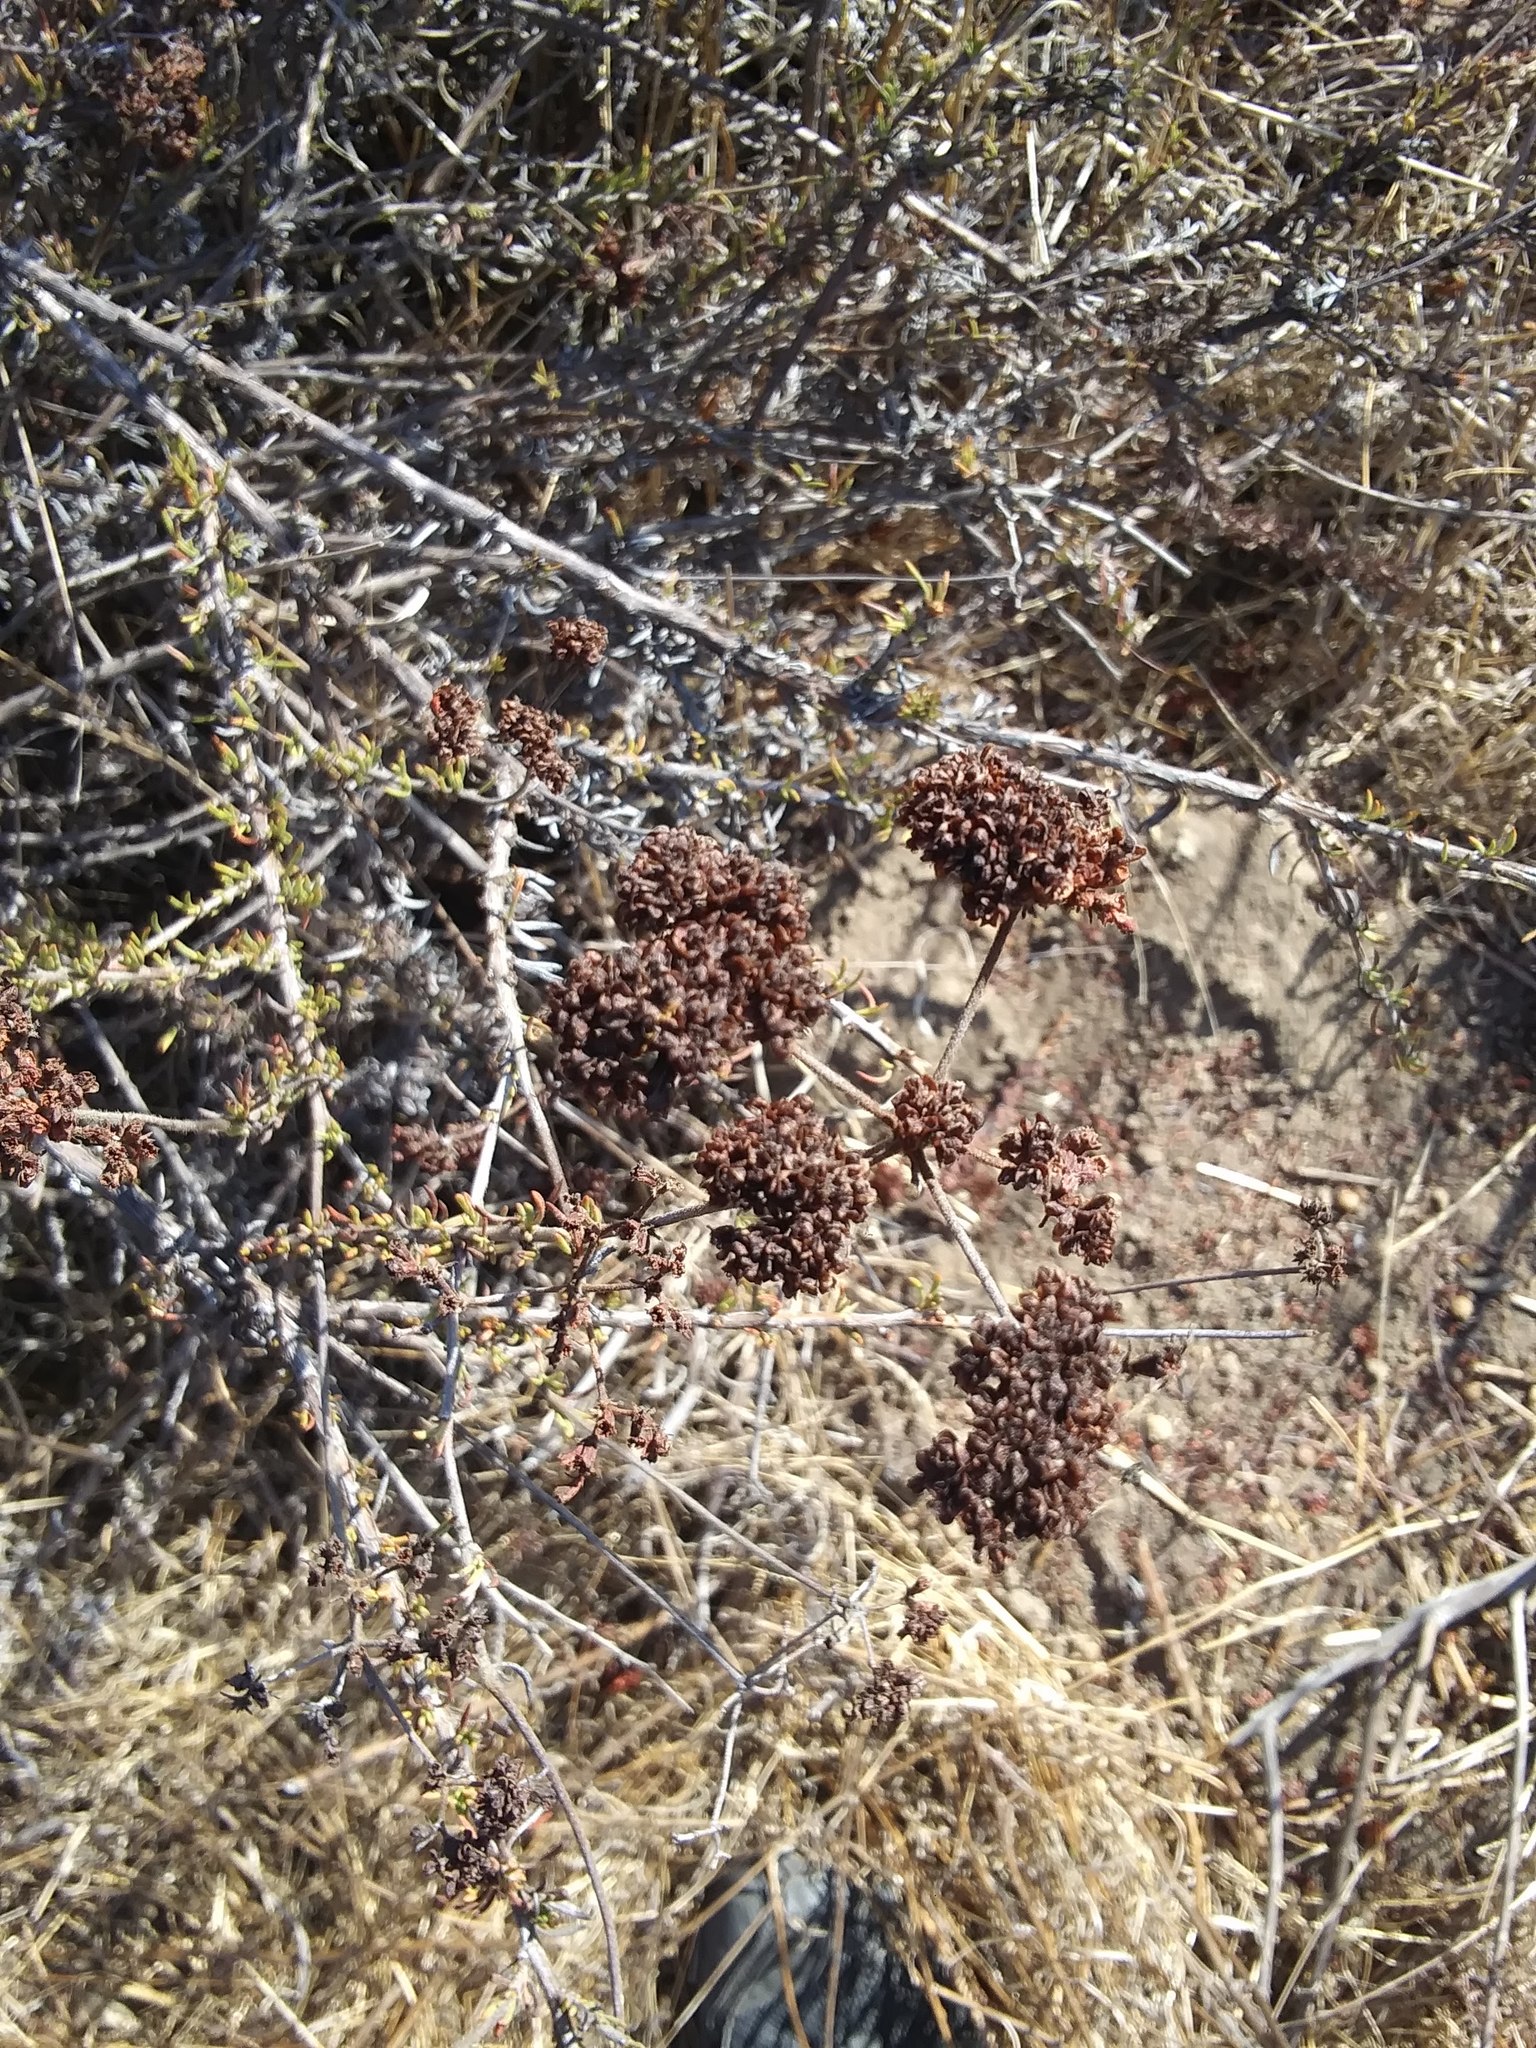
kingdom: Plantae
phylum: Tracheophyta
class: Magnoliopsida
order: Caryophyllales
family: Polygonaceae
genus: Eriogonum
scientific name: Eriogonum fasciculatum
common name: California wild buckwheat
